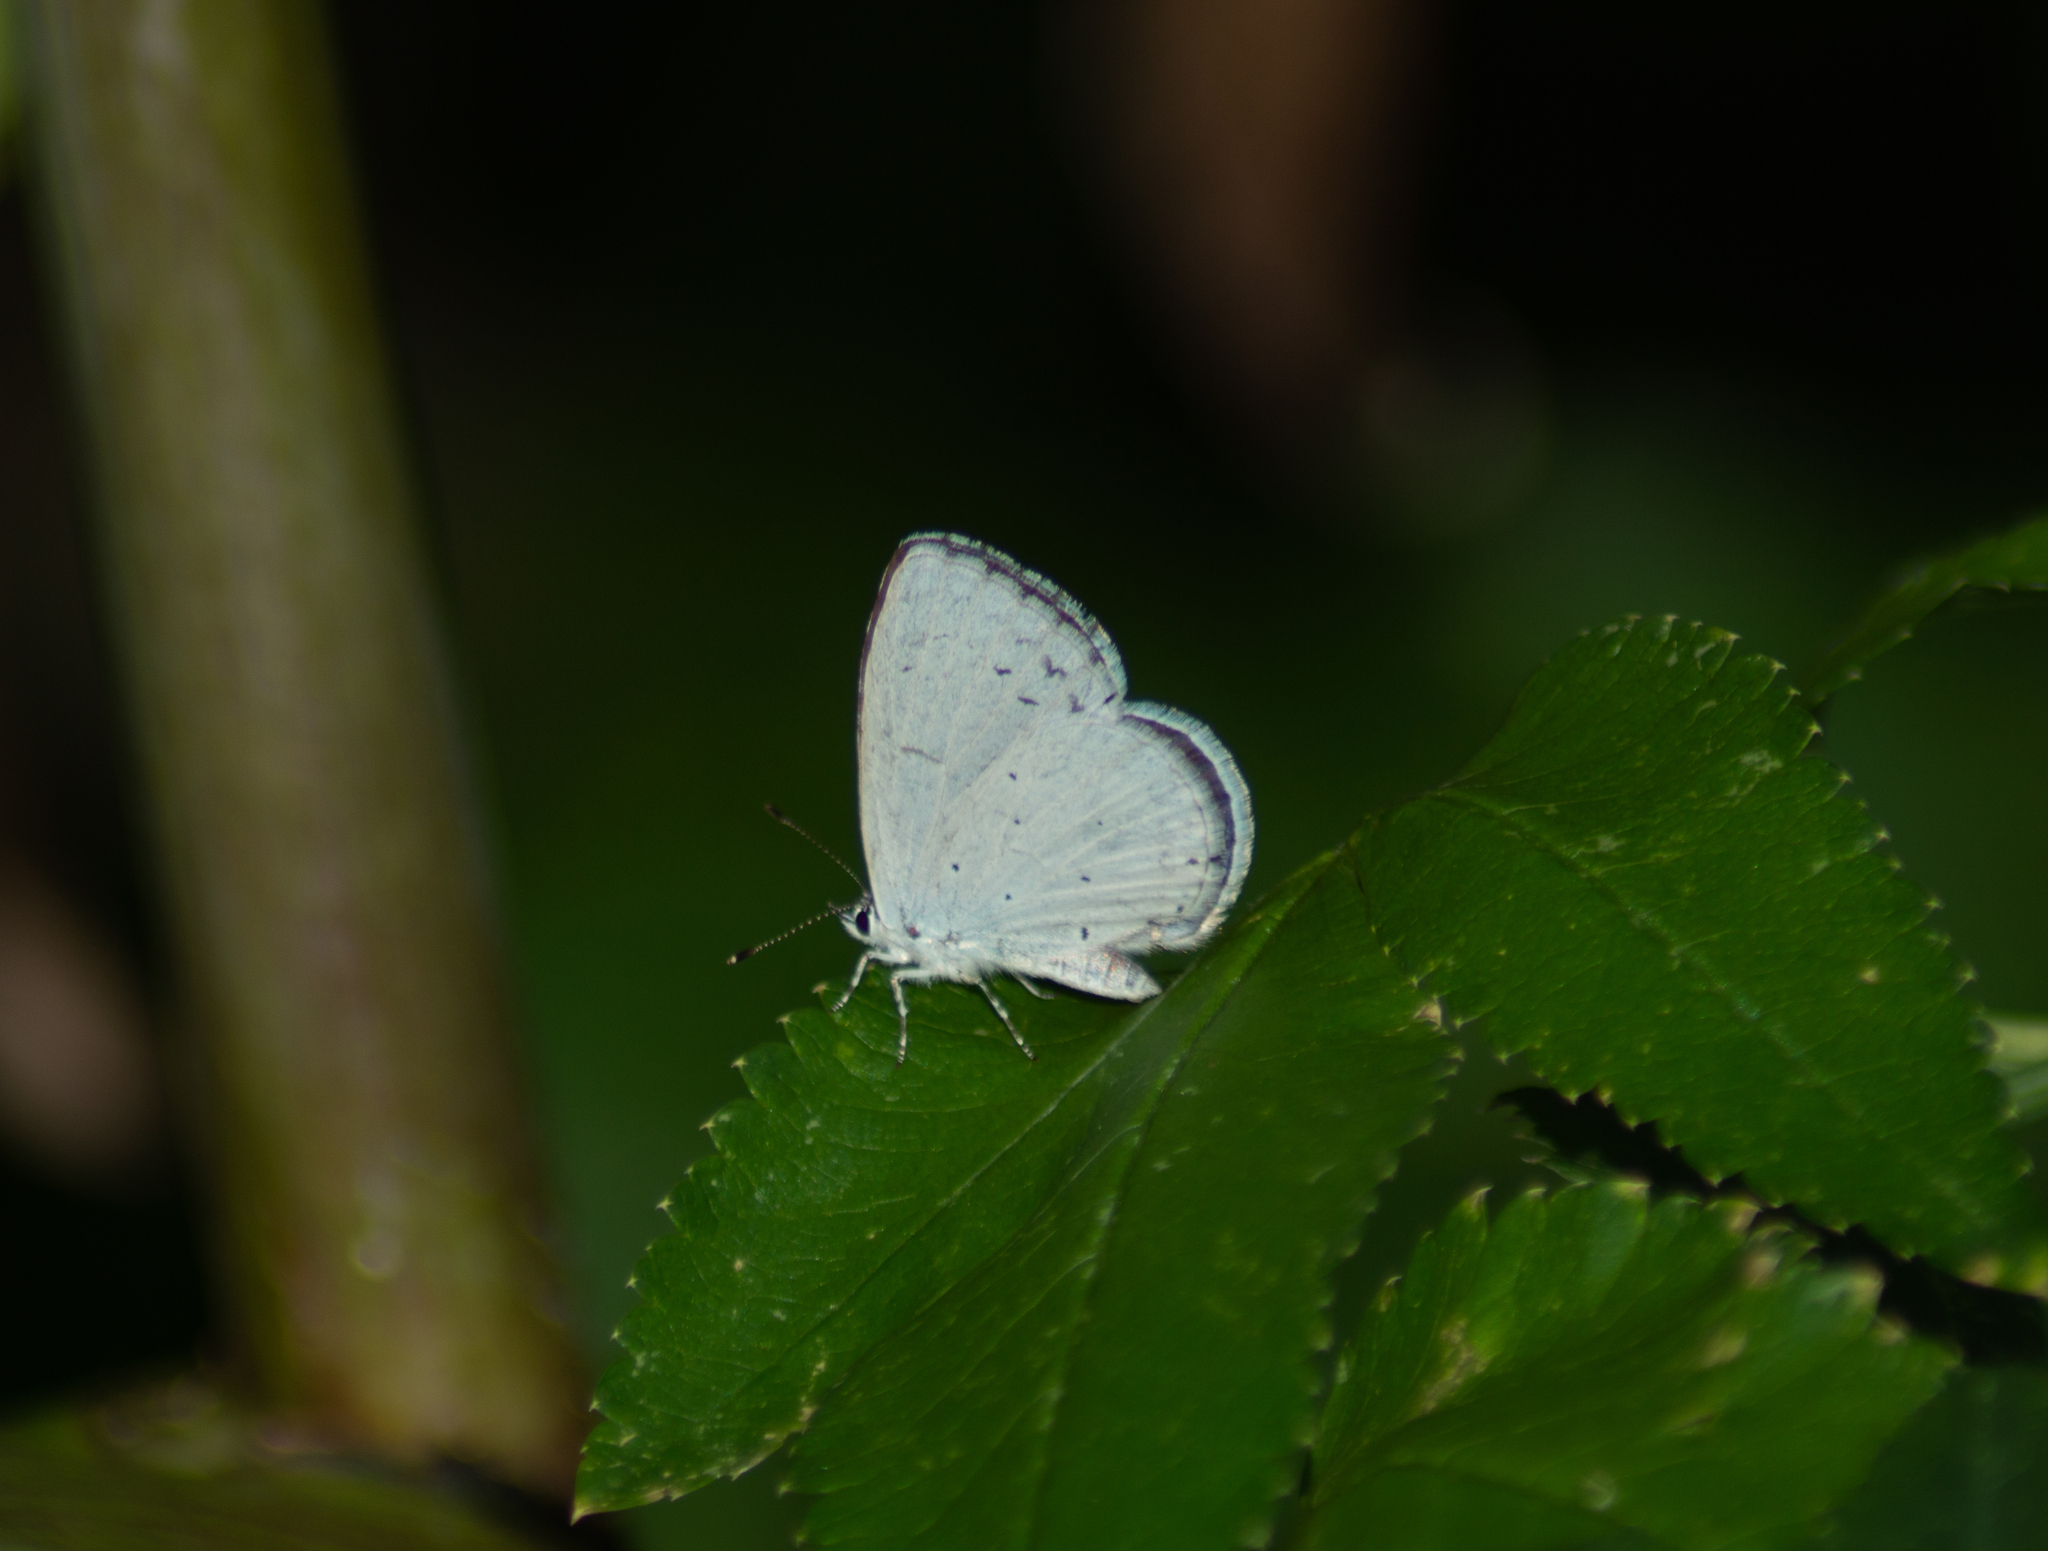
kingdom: Animalia
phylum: Arthropoda
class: Insecta
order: Lepidoptera
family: Lycaenidae
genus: Celastrina
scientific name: Celastrina argiolus
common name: Holly blue
